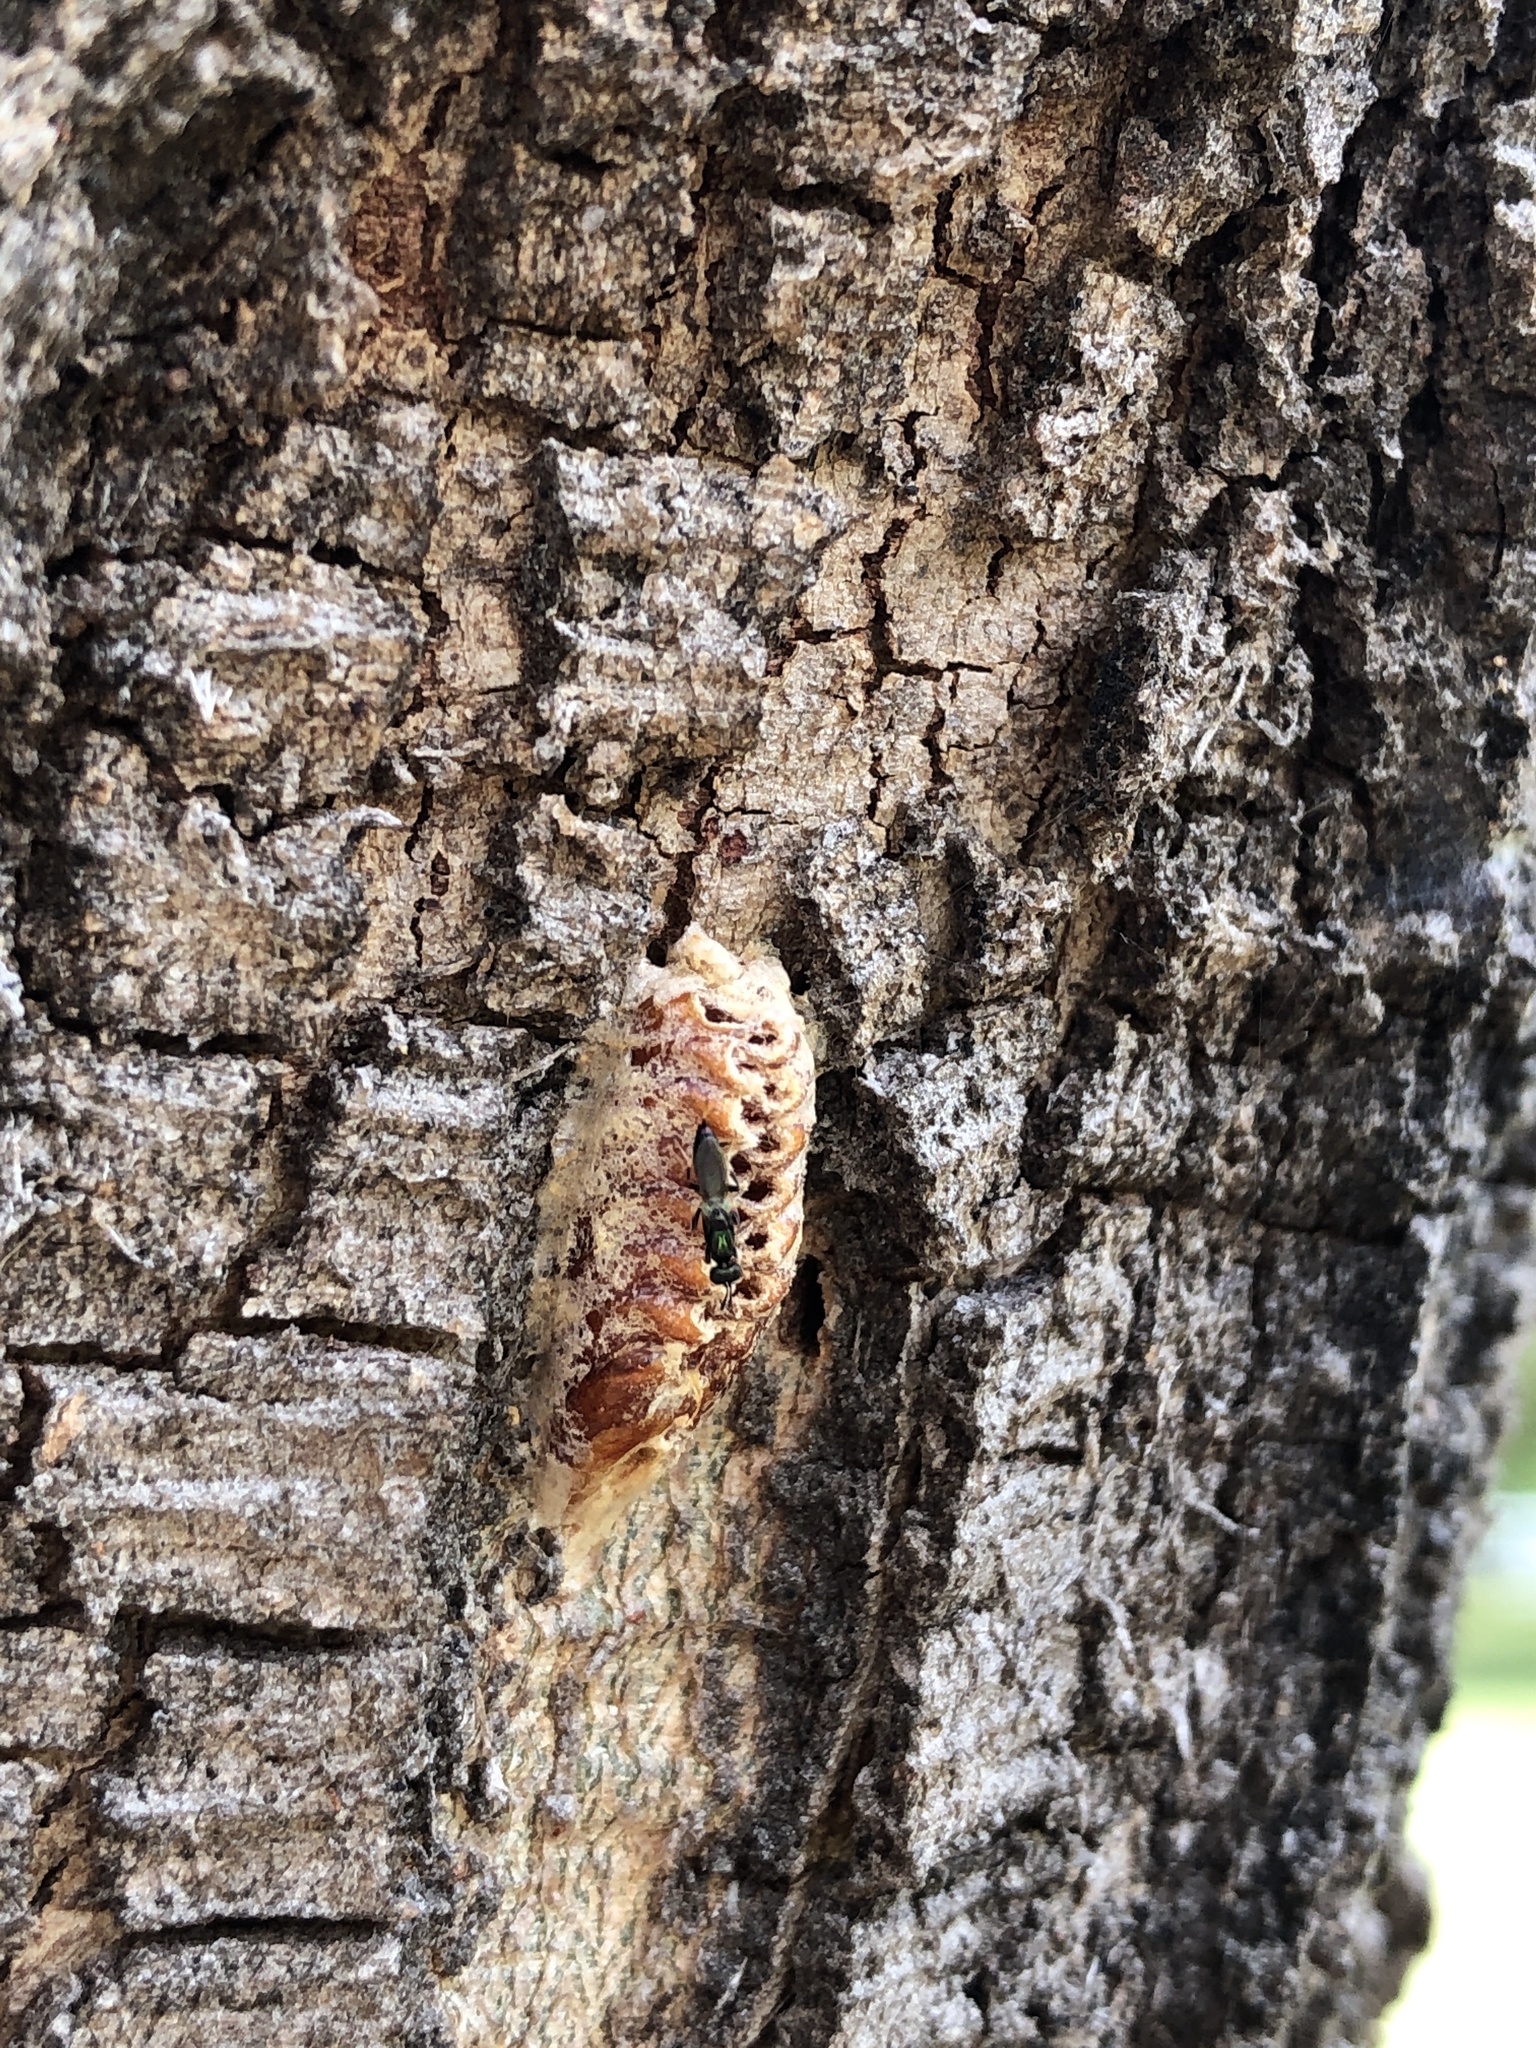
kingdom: Animalia
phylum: Arthropoda
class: Insecta
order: Mantodea
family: Mantidae
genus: Orthodera
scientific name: Orthodera ministralis
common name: Mantis
